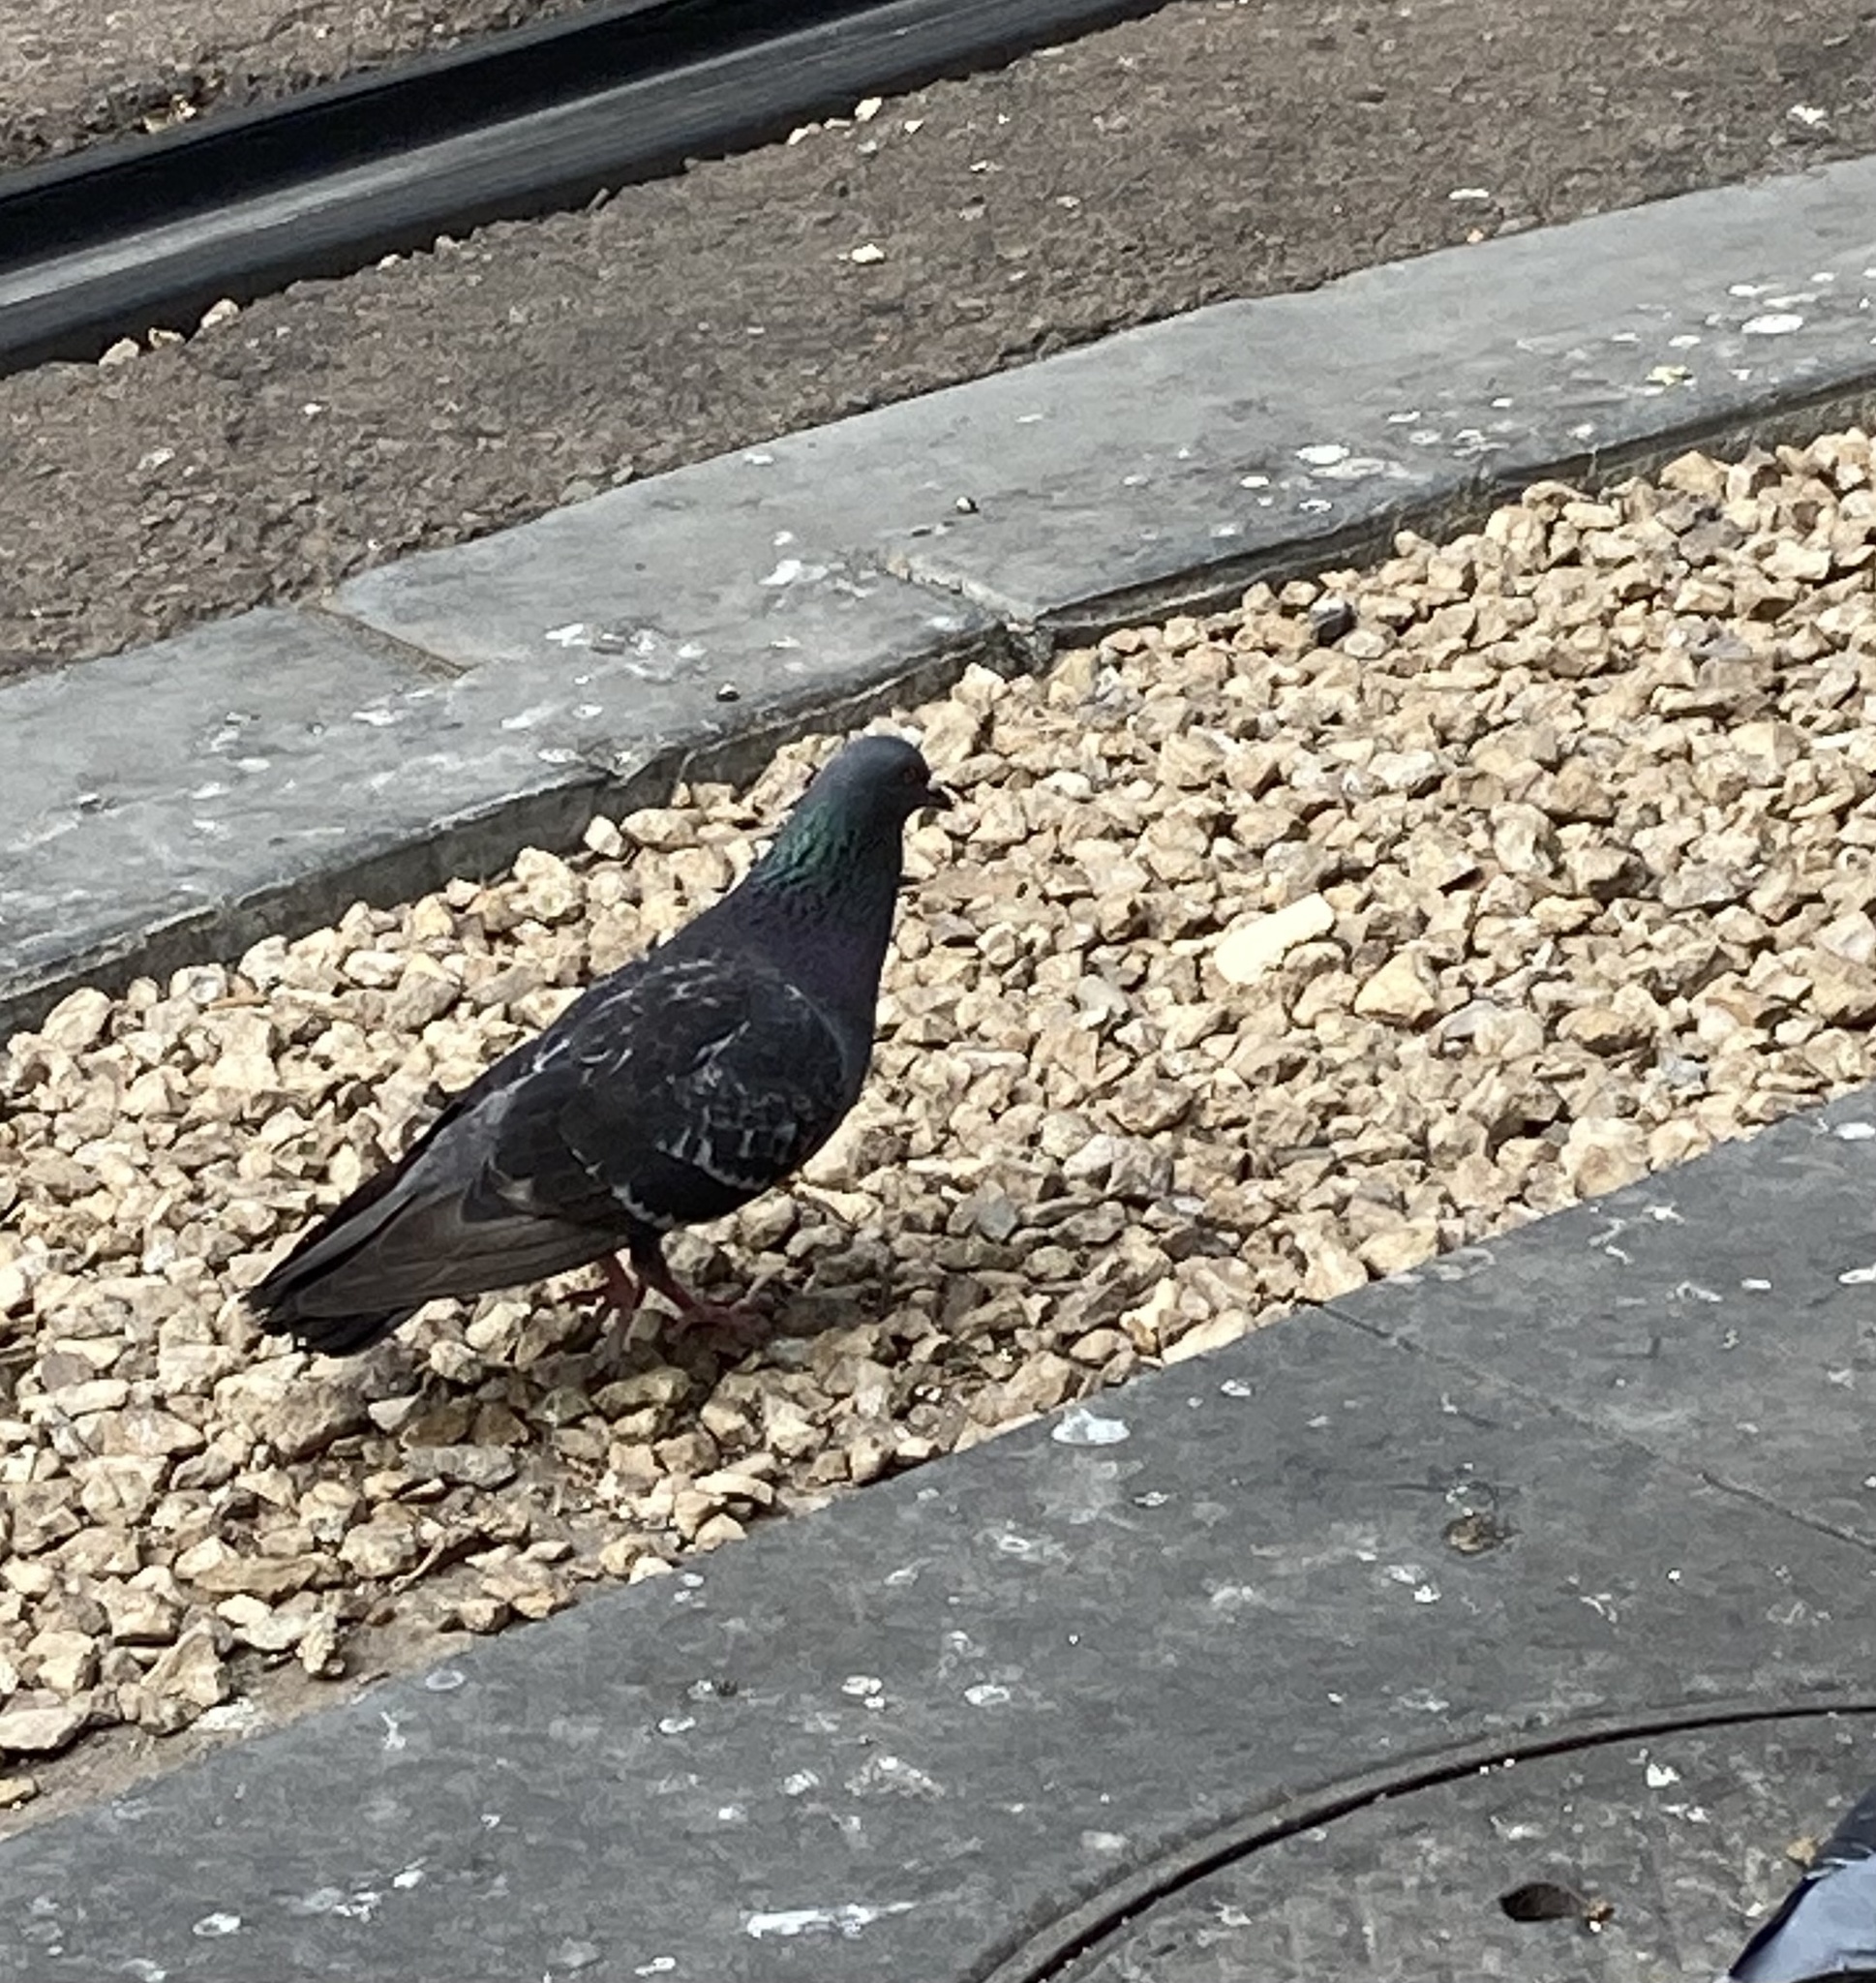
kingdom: Animalia
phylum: Chordata
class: Aves
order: Columbiformes
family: Columbidae
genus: Columba
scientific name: Columba livia
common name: Rock pigeon
